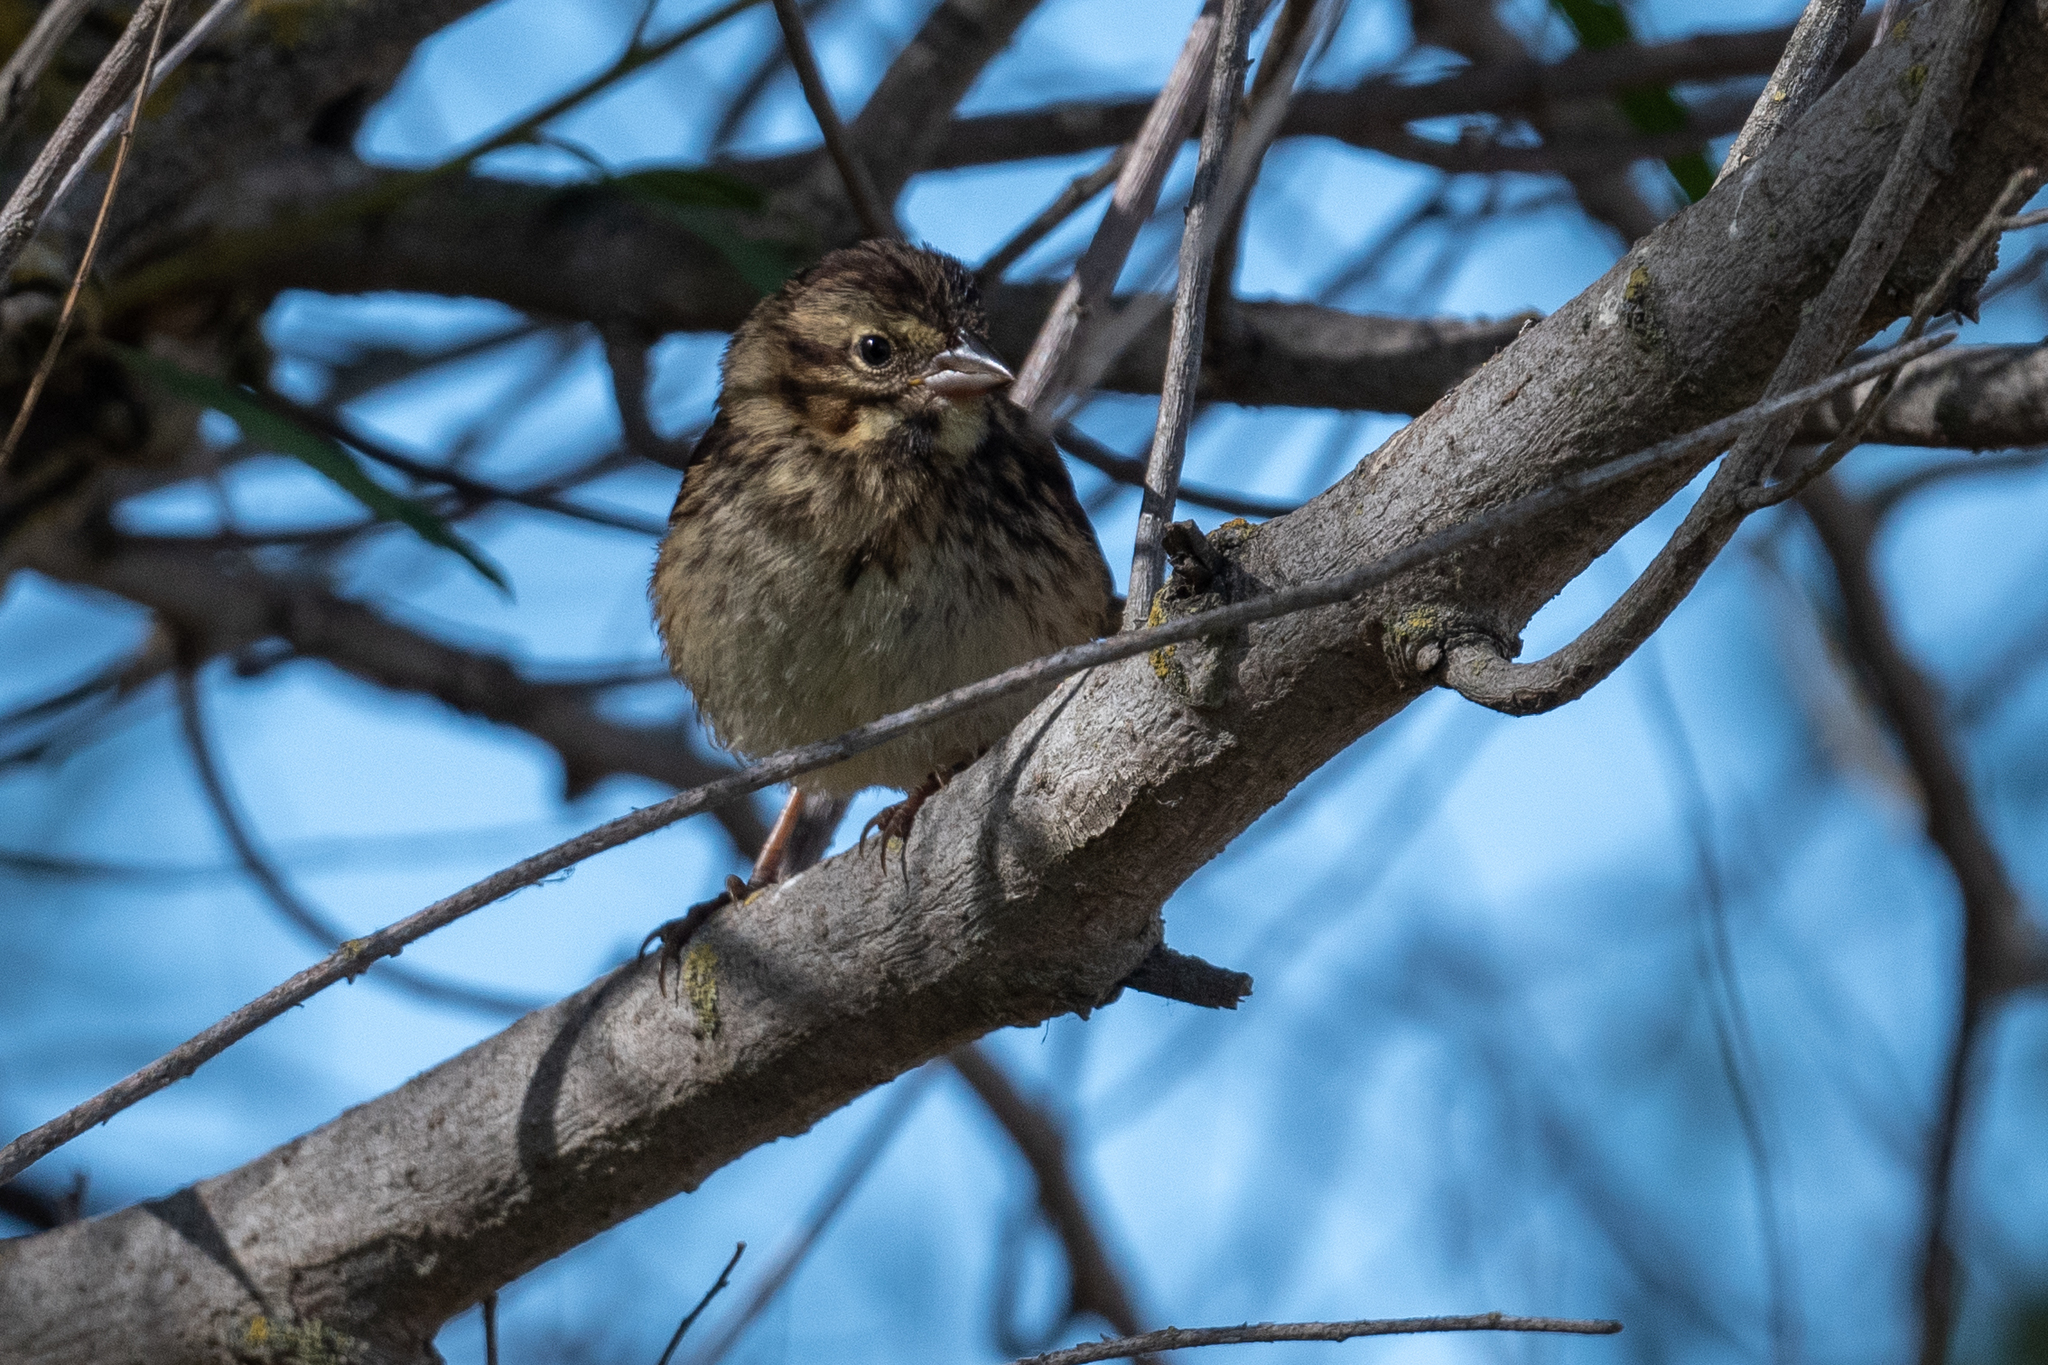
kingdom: Animalia
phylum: Chordata
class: Aves
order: Passeriformes
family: Passerellidae
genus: Melospiza
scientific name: Melospiza melodia
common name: Song sparrow
